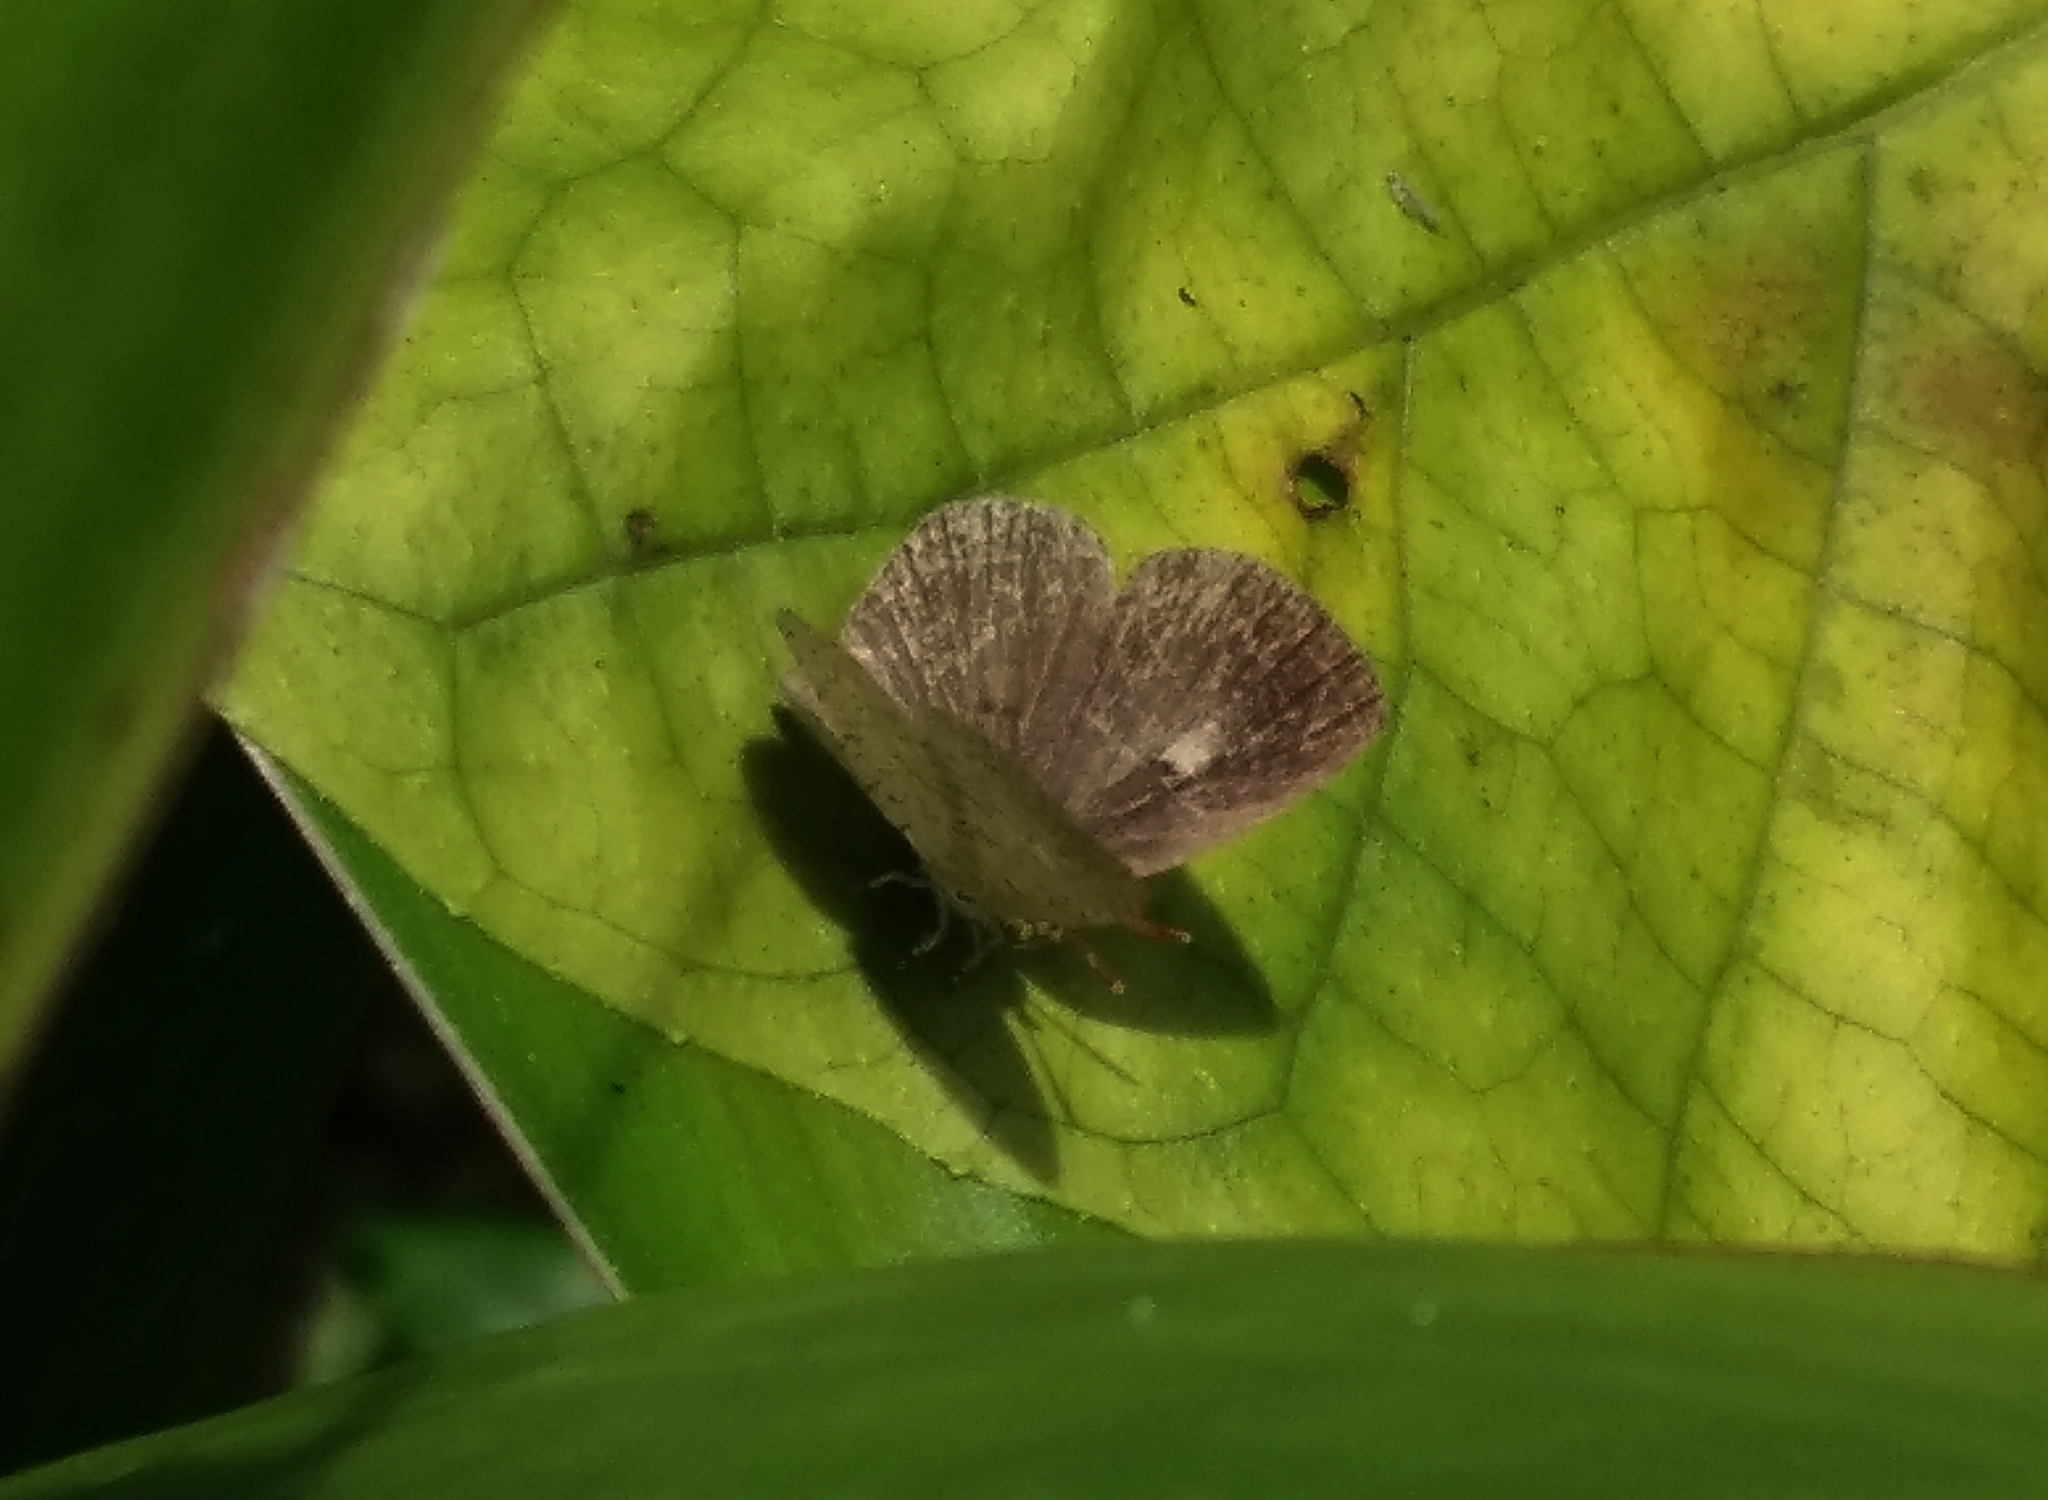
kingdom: Animalia
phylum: Arthropoda
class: Insecta
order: Lepidoptera
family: Lycaenidae
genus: Spalgis
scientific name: Spalgis epius
